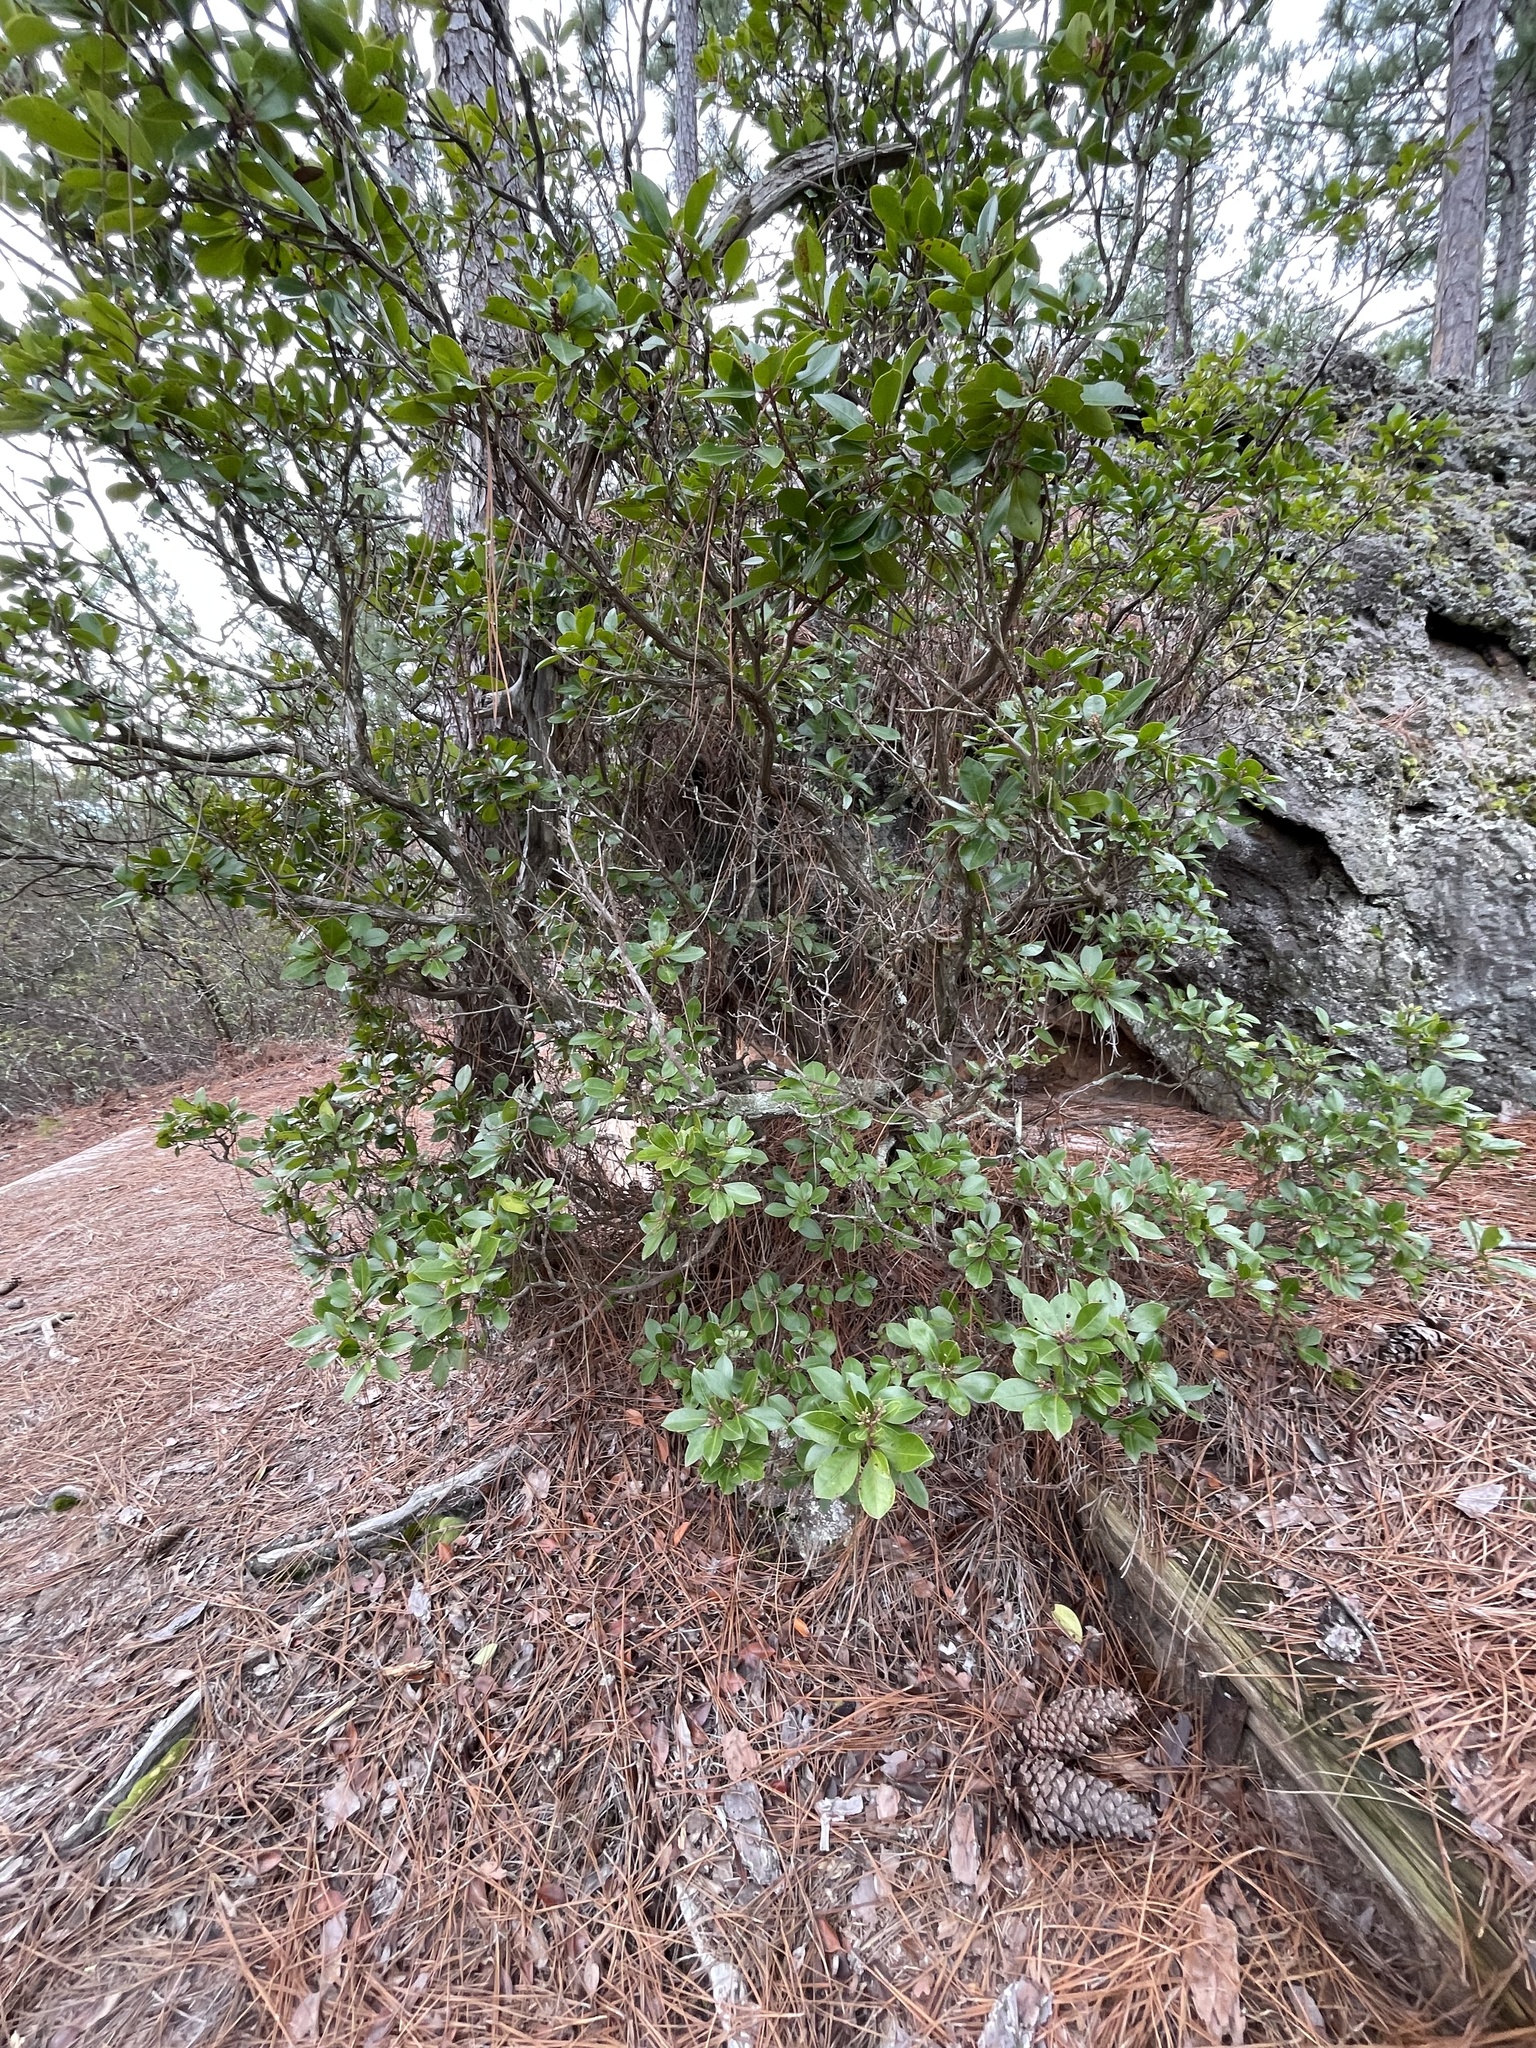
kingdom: Plantae
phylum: Tracheophyta
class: Magnoliopsida
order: Ericales
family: Ericaceae
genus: Kalmia
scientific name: Kalmia latifolia
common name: Mountain-laurel
